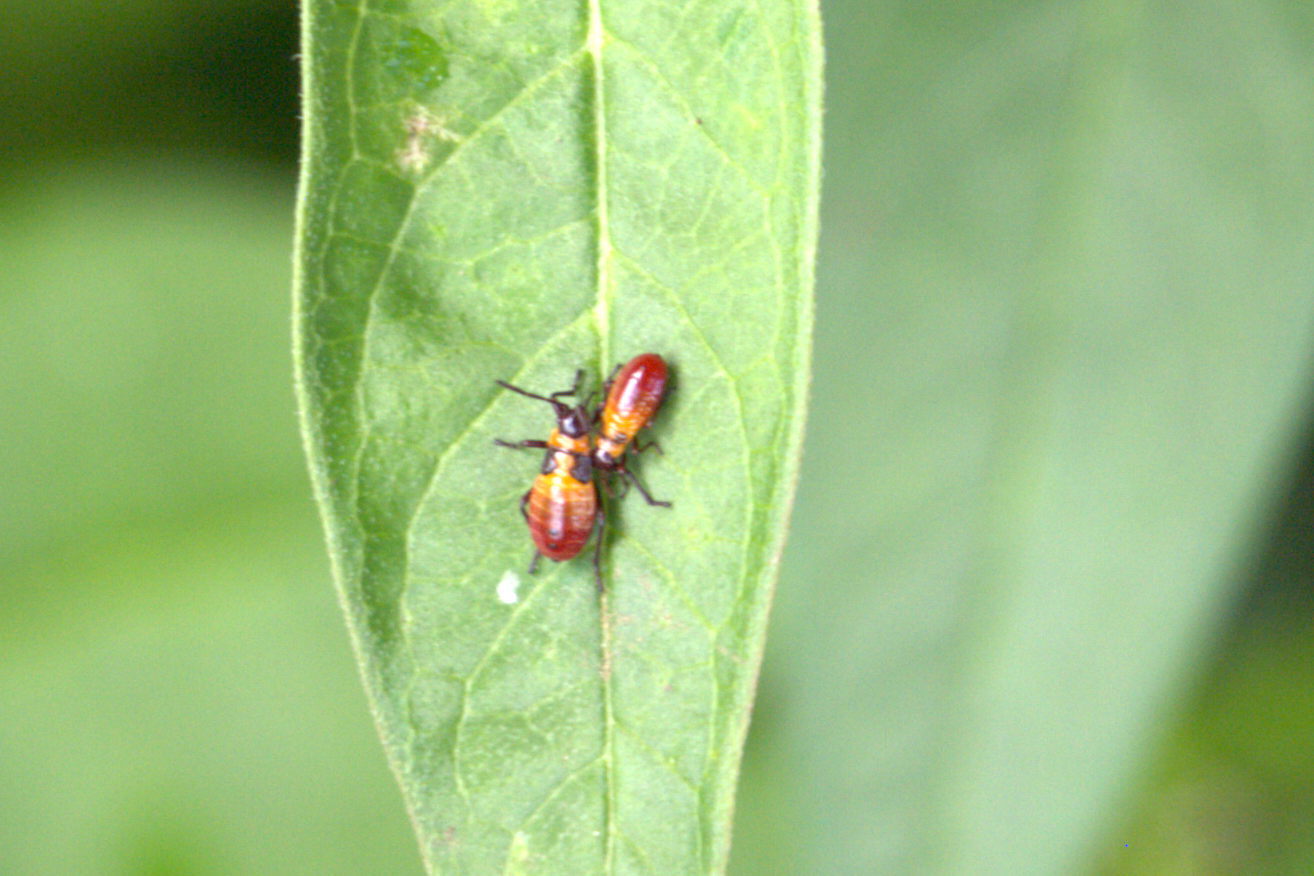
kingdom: Animalia
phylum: Arthropoda
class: Insecta
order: Hemiptera
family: Lygaeidae
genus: Oncopeltus
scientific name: Oncopeltus cingulifer
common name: Lygaeid bug
